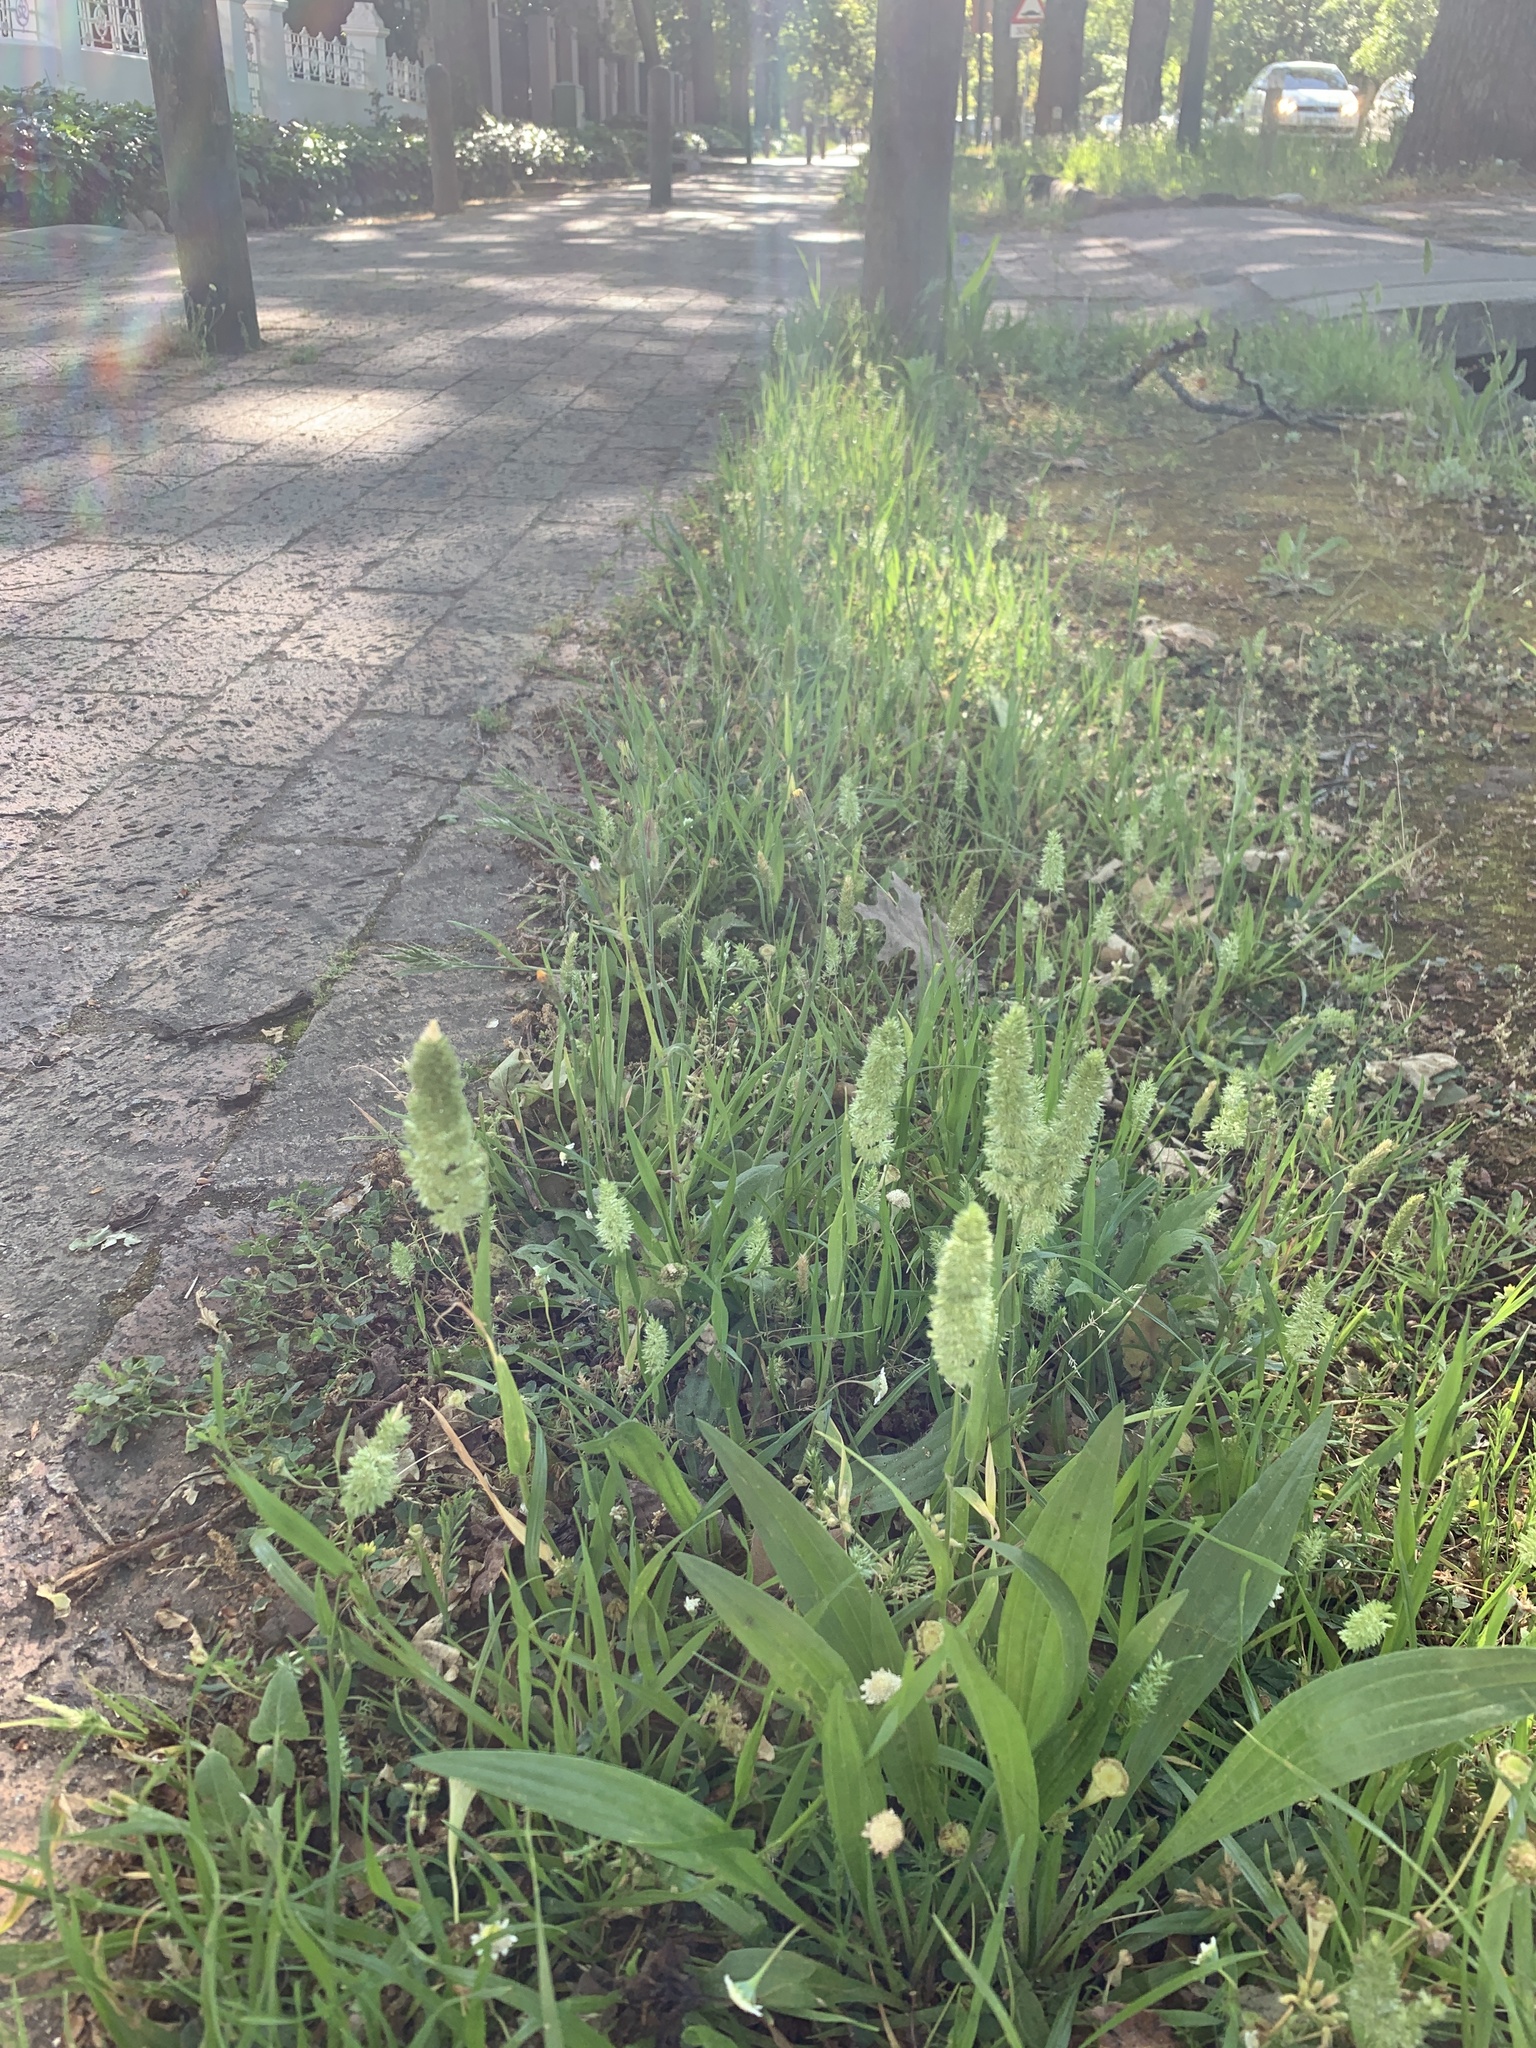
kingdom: Plantae
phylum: Tracheophyta
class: Liliopsida
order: Poales
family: Poaceae
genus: Rostraria
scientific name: Rostraria cristata
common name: Mediterranean hair-grass
